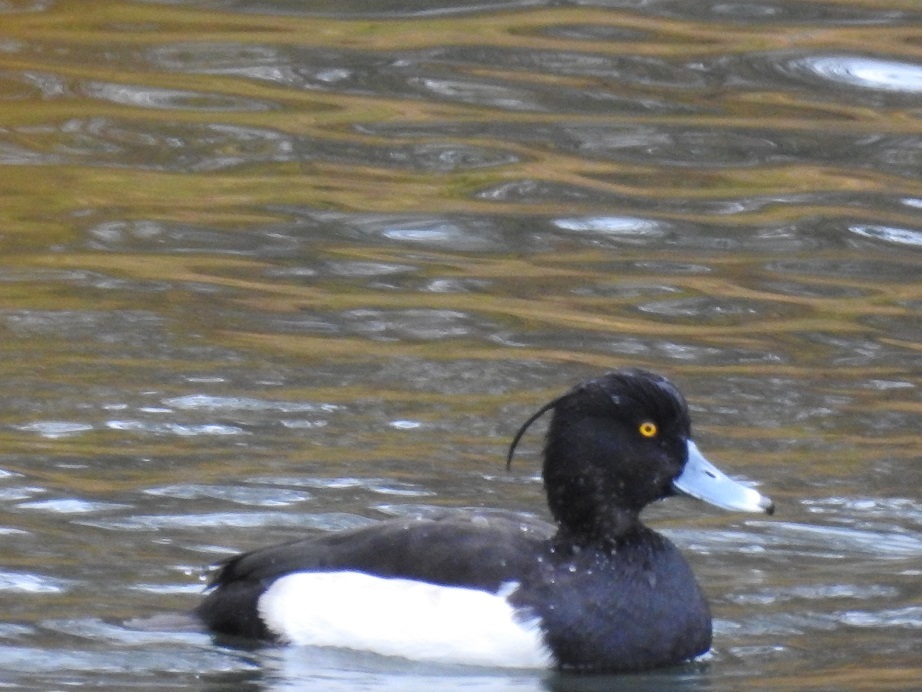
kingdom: Animalia
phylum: Chordata
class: Aves
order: Anseriformes
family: Anatidae
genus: Aythya
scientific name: Aythya fuligula
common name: Tufted duck
